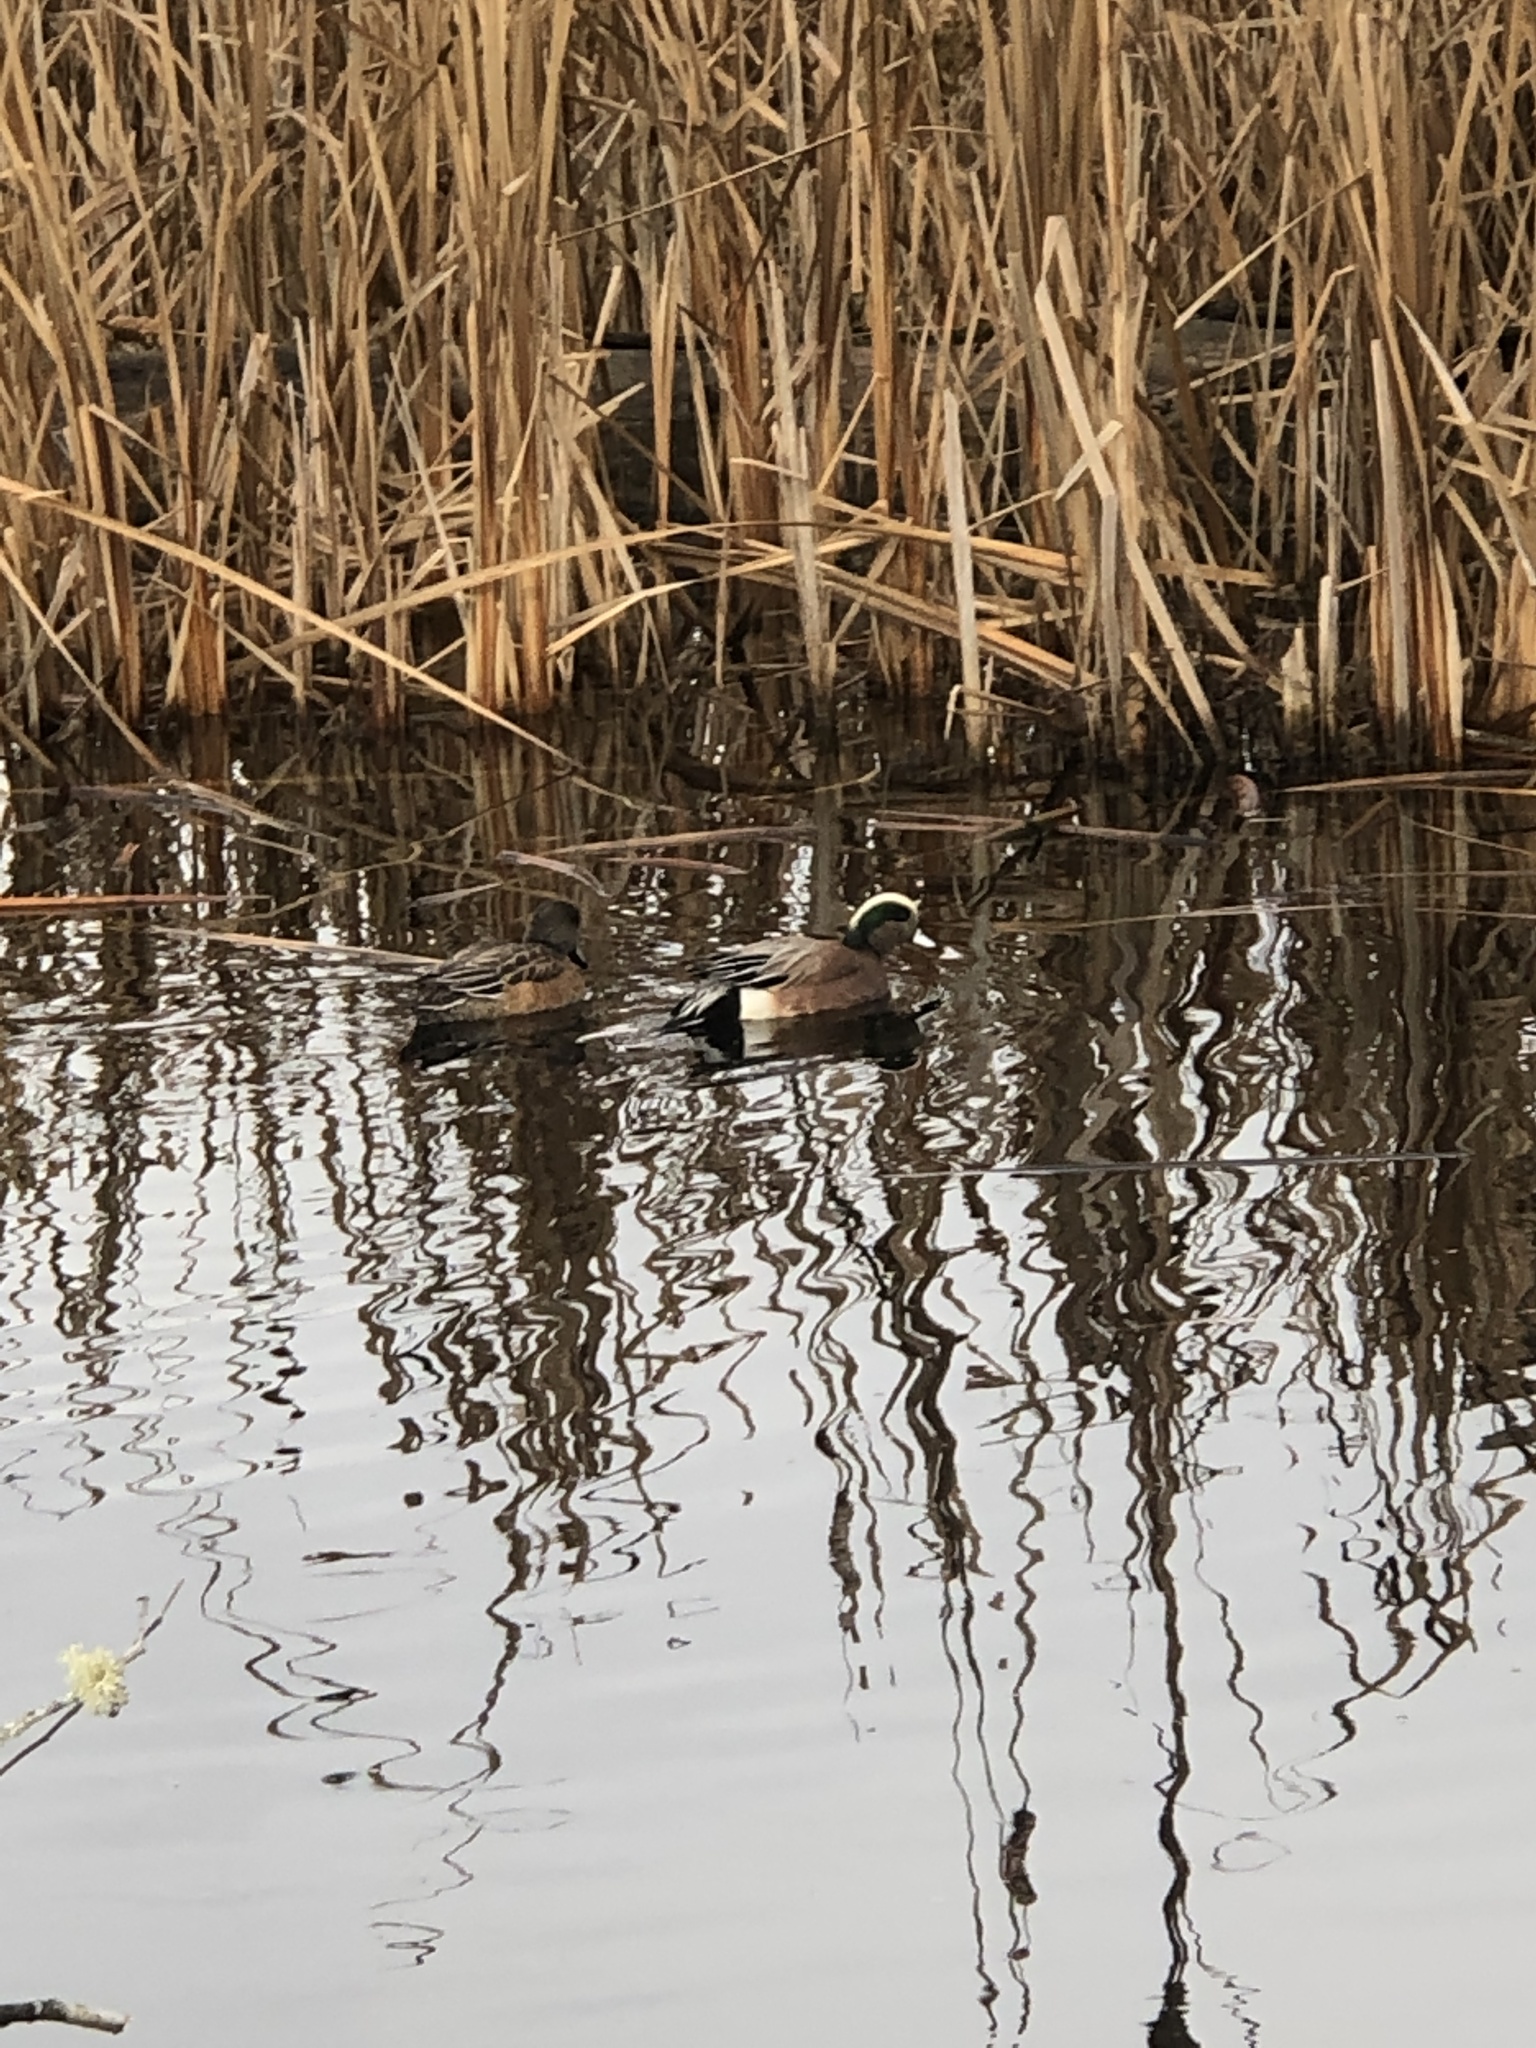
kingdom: Animalia
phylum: Chordata
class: Aves
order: Anseriformes
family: Anatidae
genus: Mareca
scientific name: Mareca americana
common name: American wigeon
